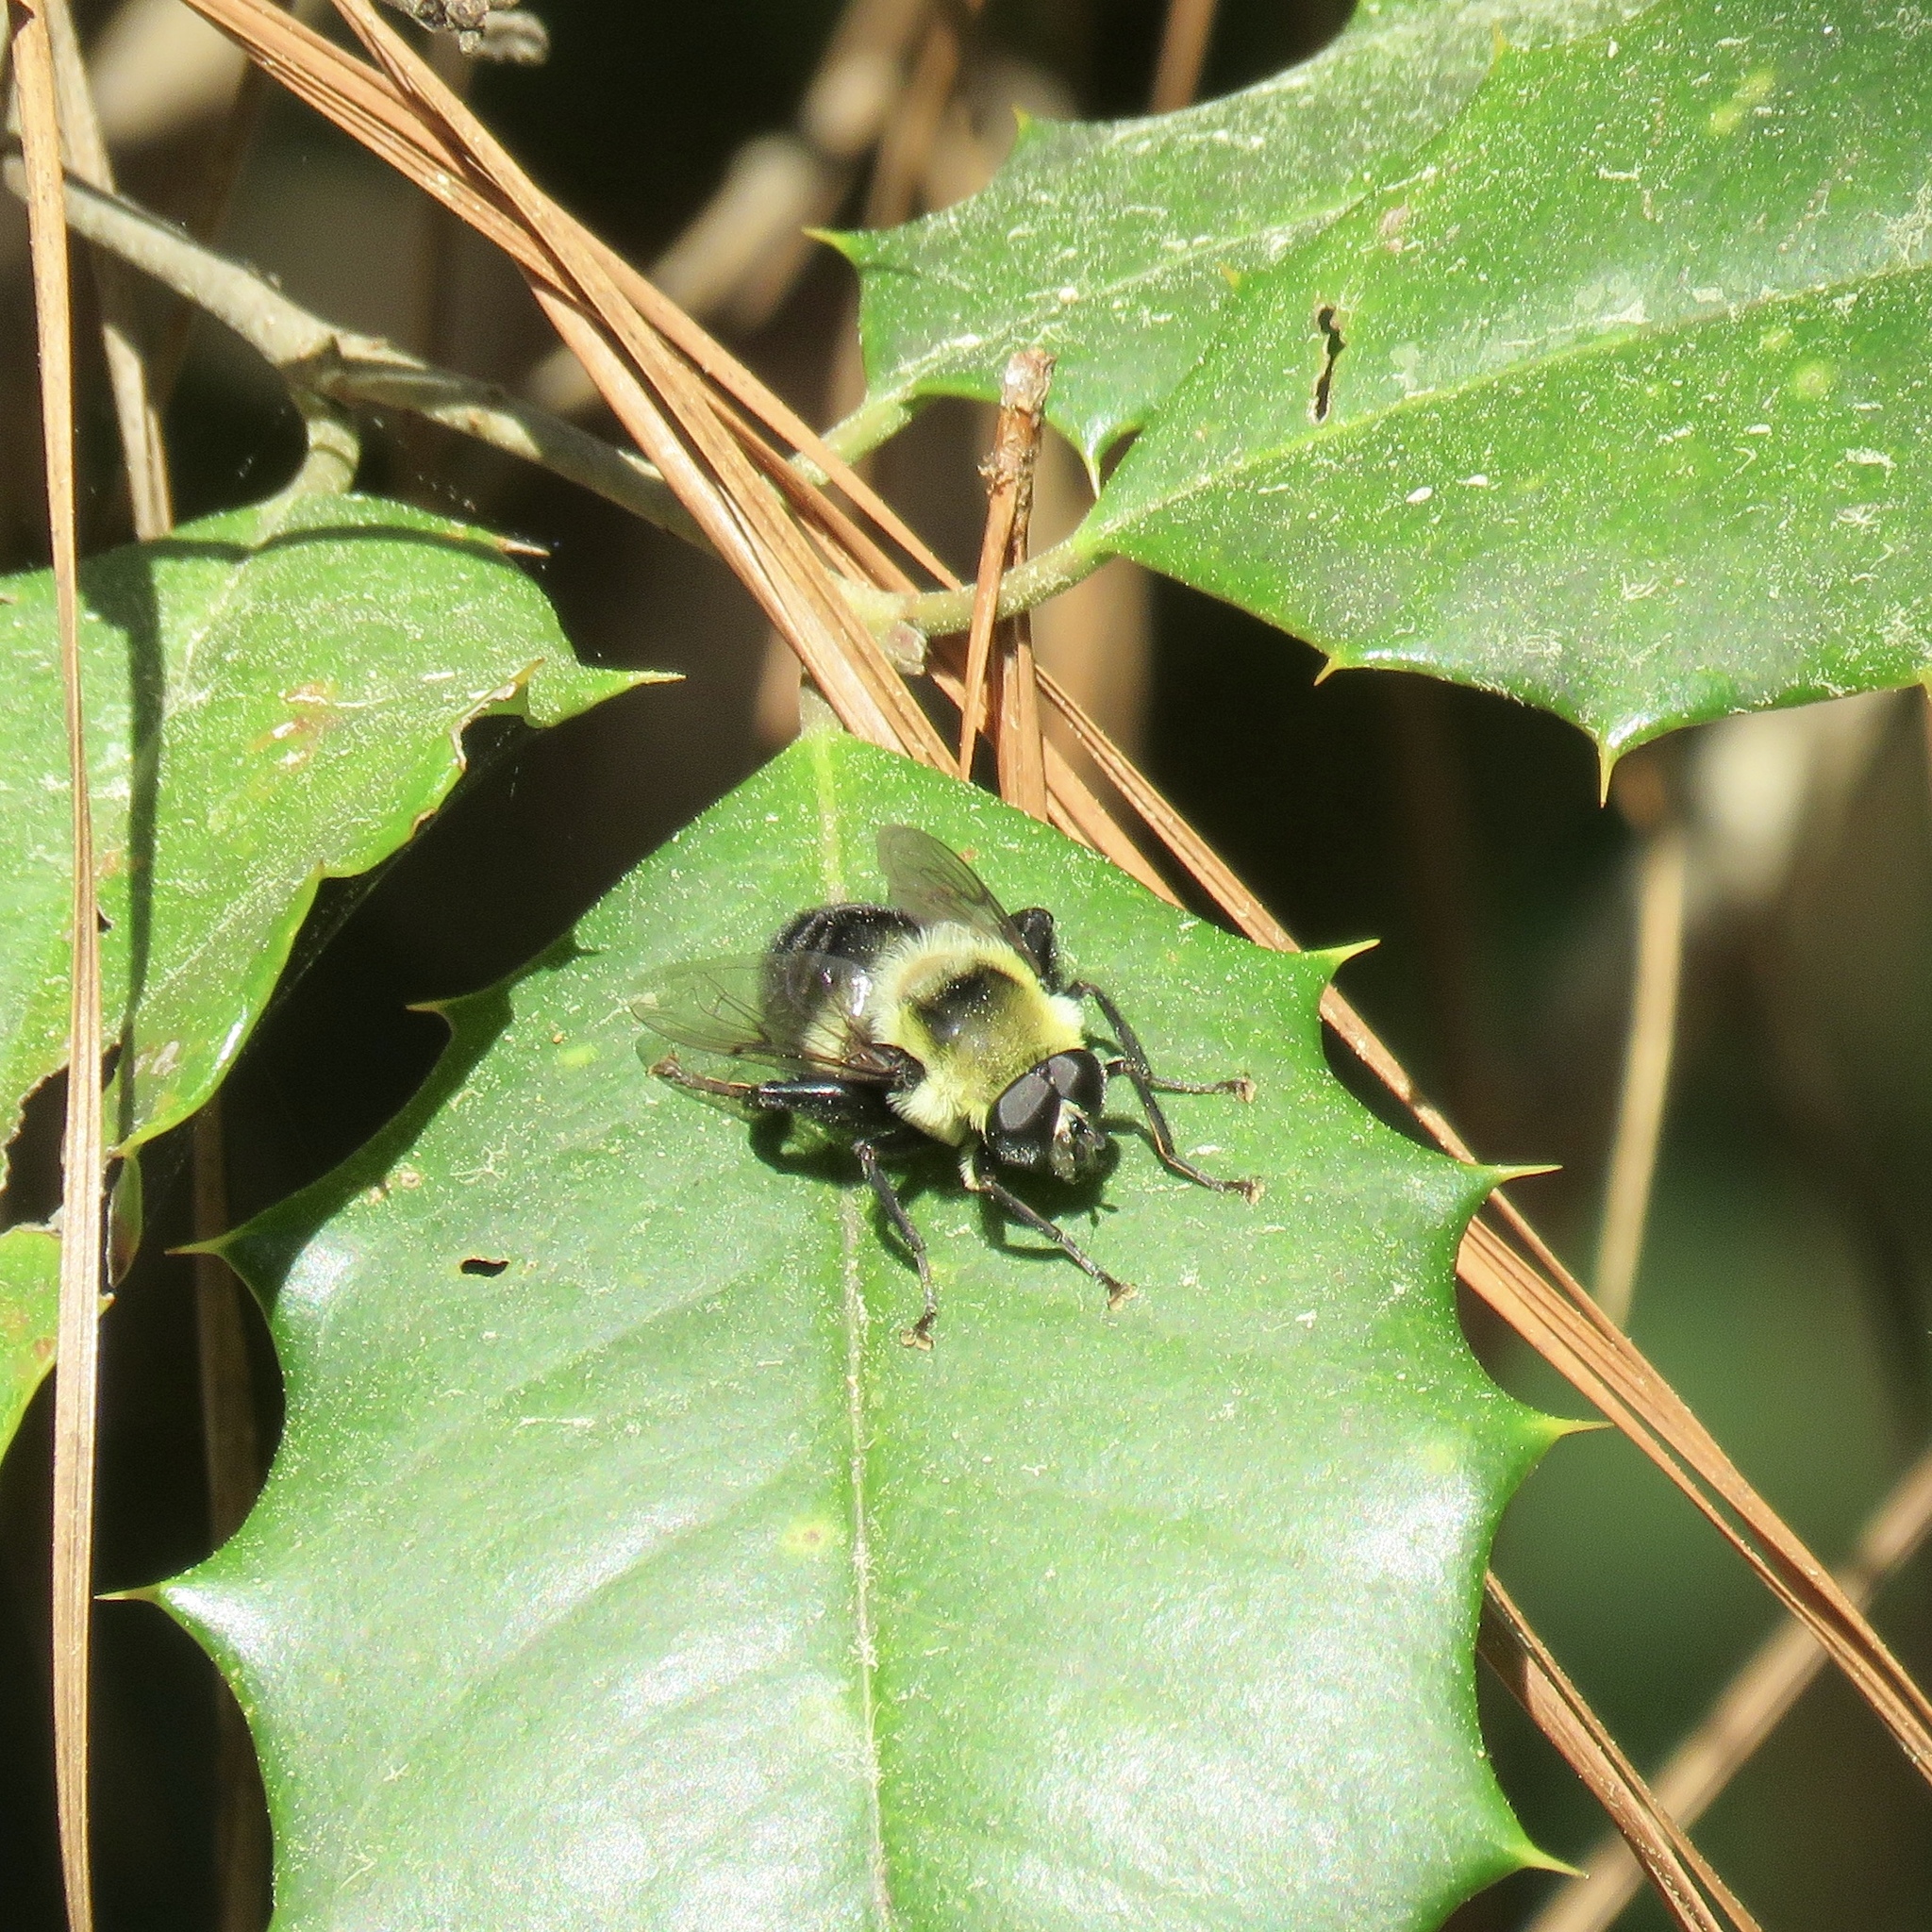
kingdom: Animalia
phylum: Arthropoda
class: Insecta
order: Diptera
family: Syrphidae
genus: Imatisma
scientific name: Imatisma posticata
